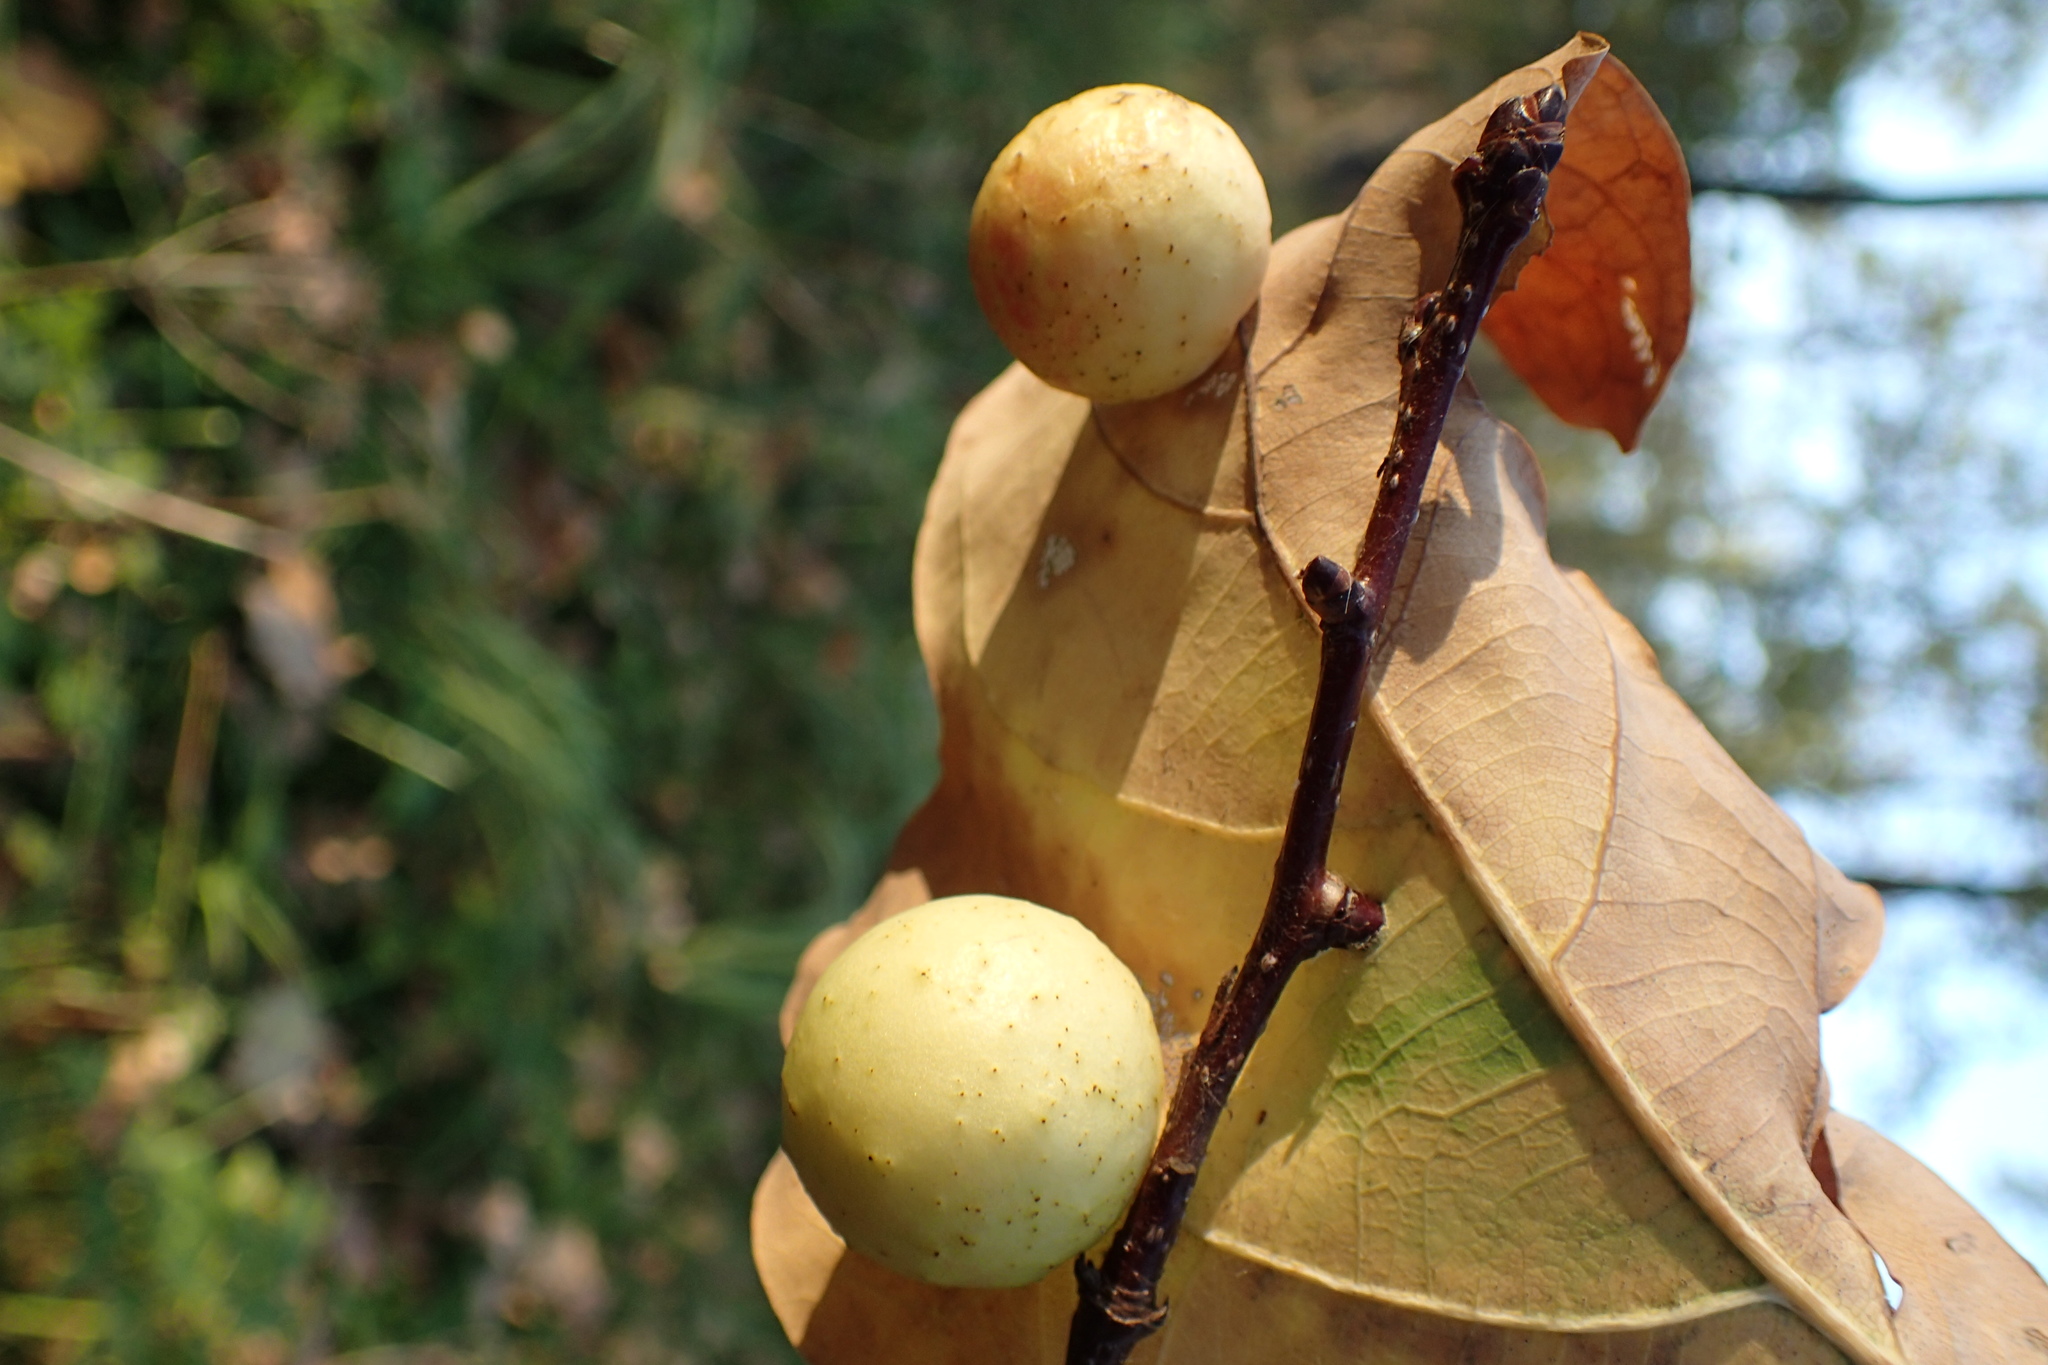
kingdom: Animalia
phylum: Arthropoda
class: Insecta
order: Hymenoptera
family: Cynipidae
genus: Cynips
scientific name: Cynips quercusfolii
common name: Cherry gall
